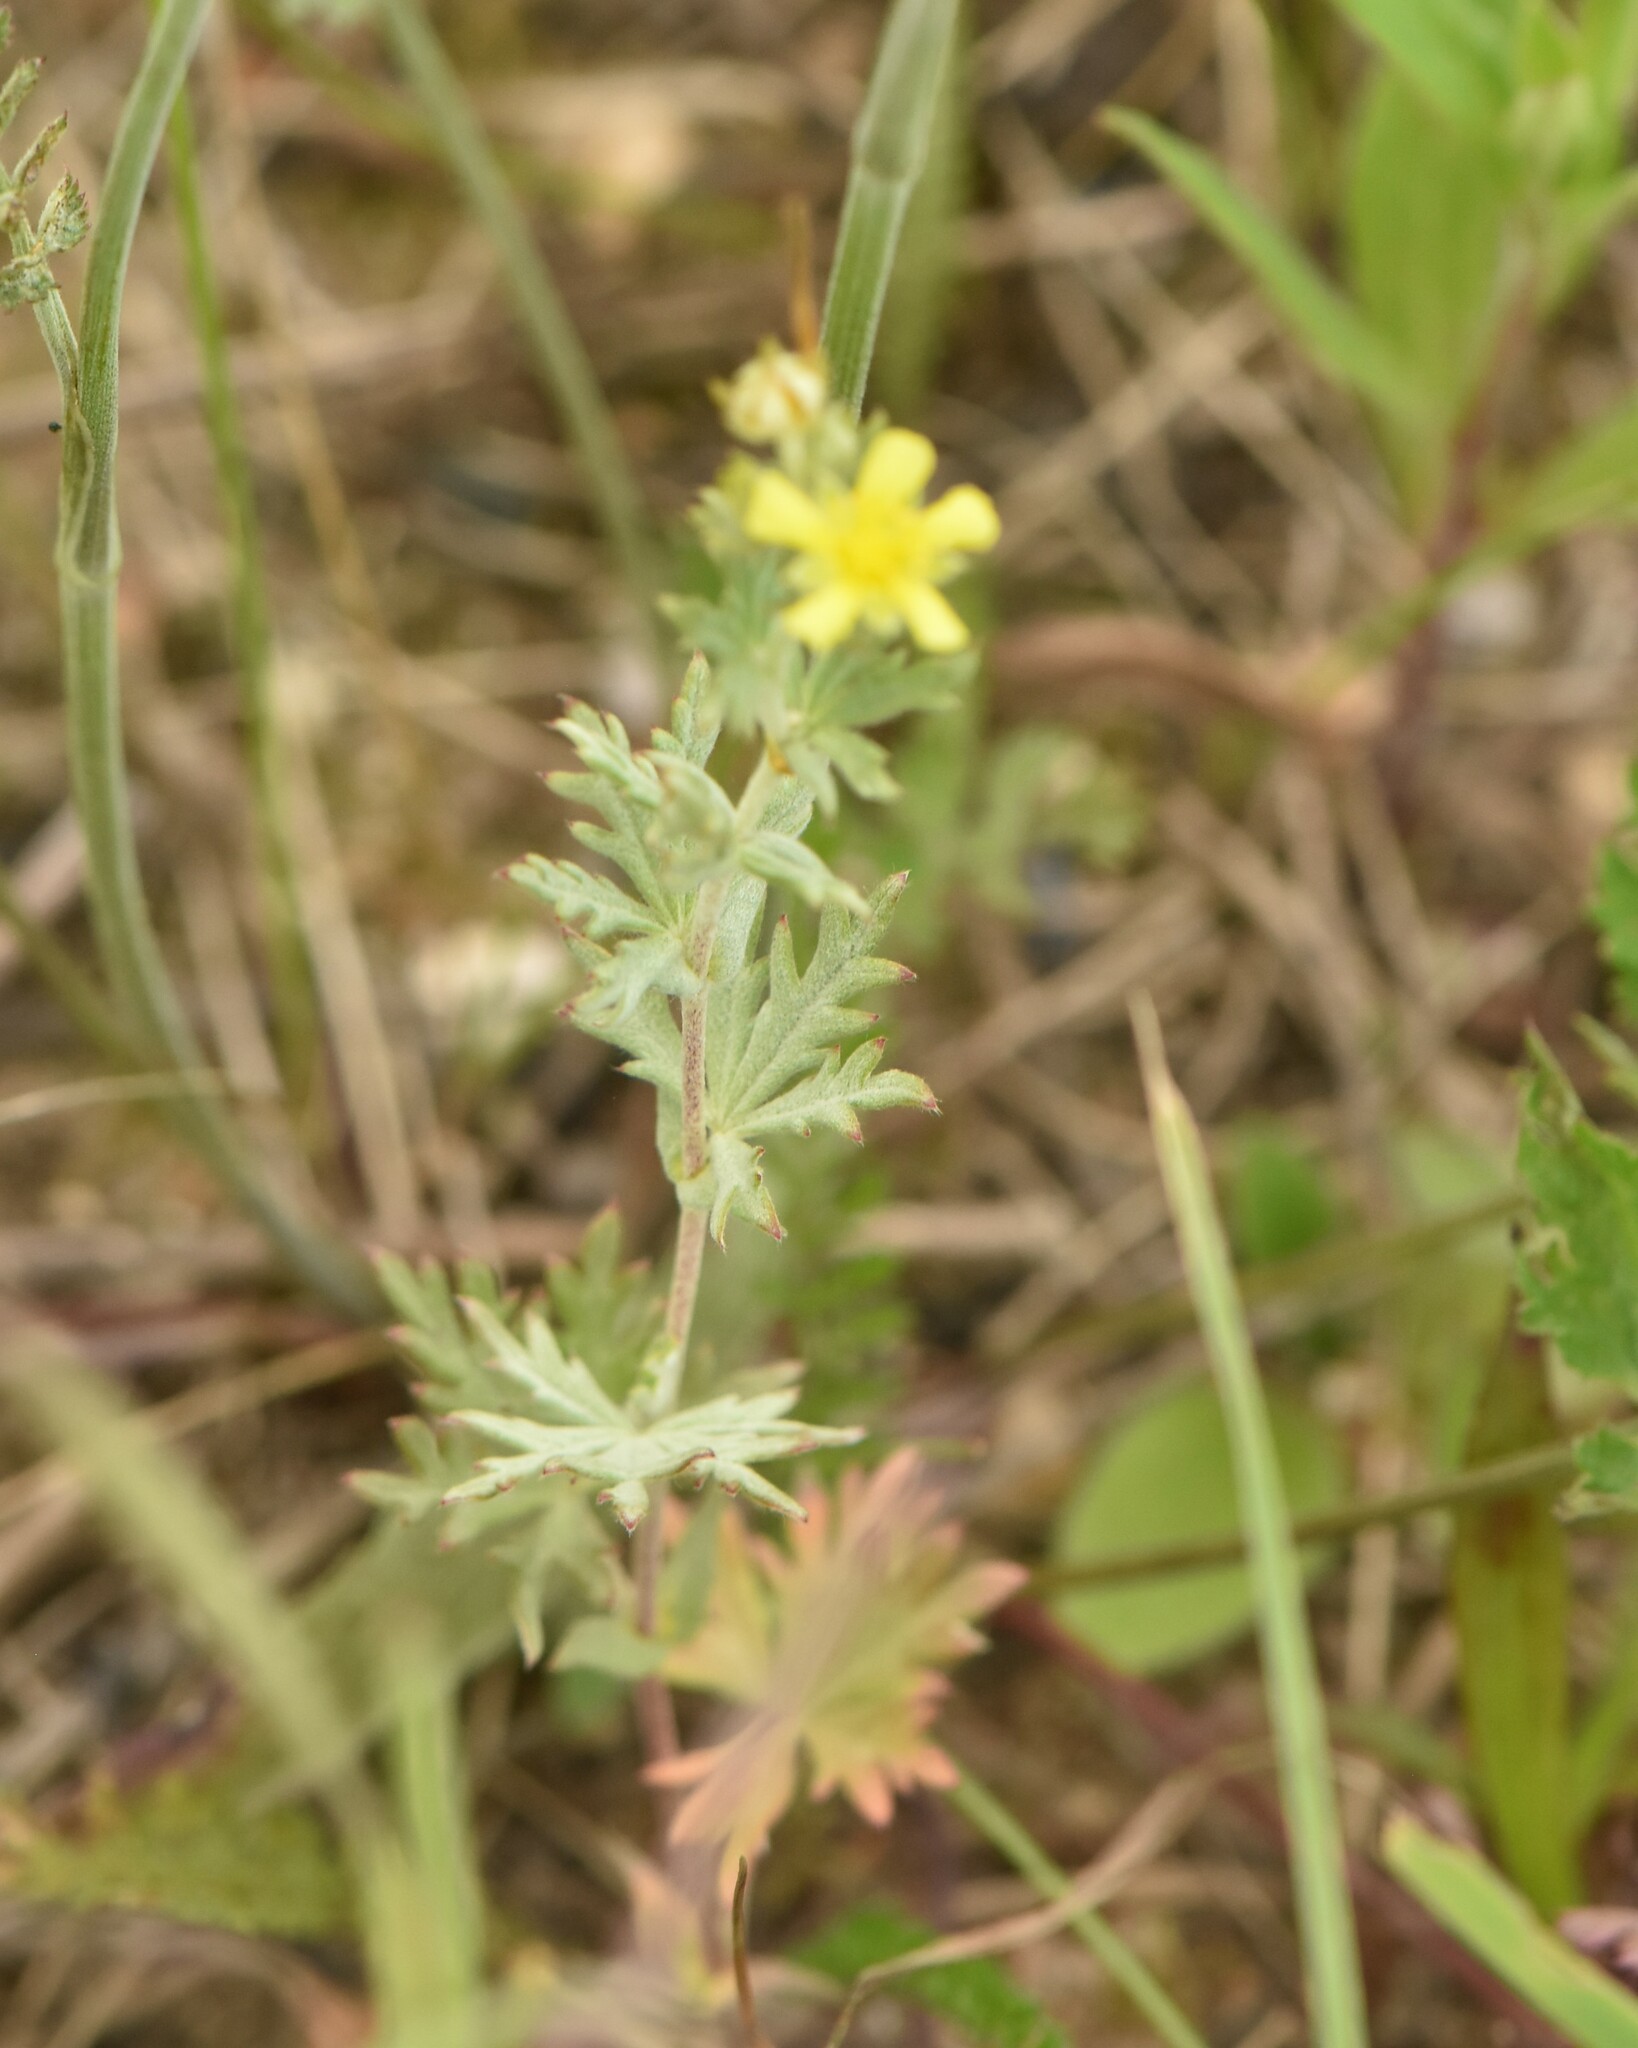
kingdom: Plantae
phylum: Tracheophyta
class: Magnoliopsida
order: Rosales
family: Rosaceae
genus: Potentilla
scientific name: Potentilla argentea
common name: Hoary cinquefoil
